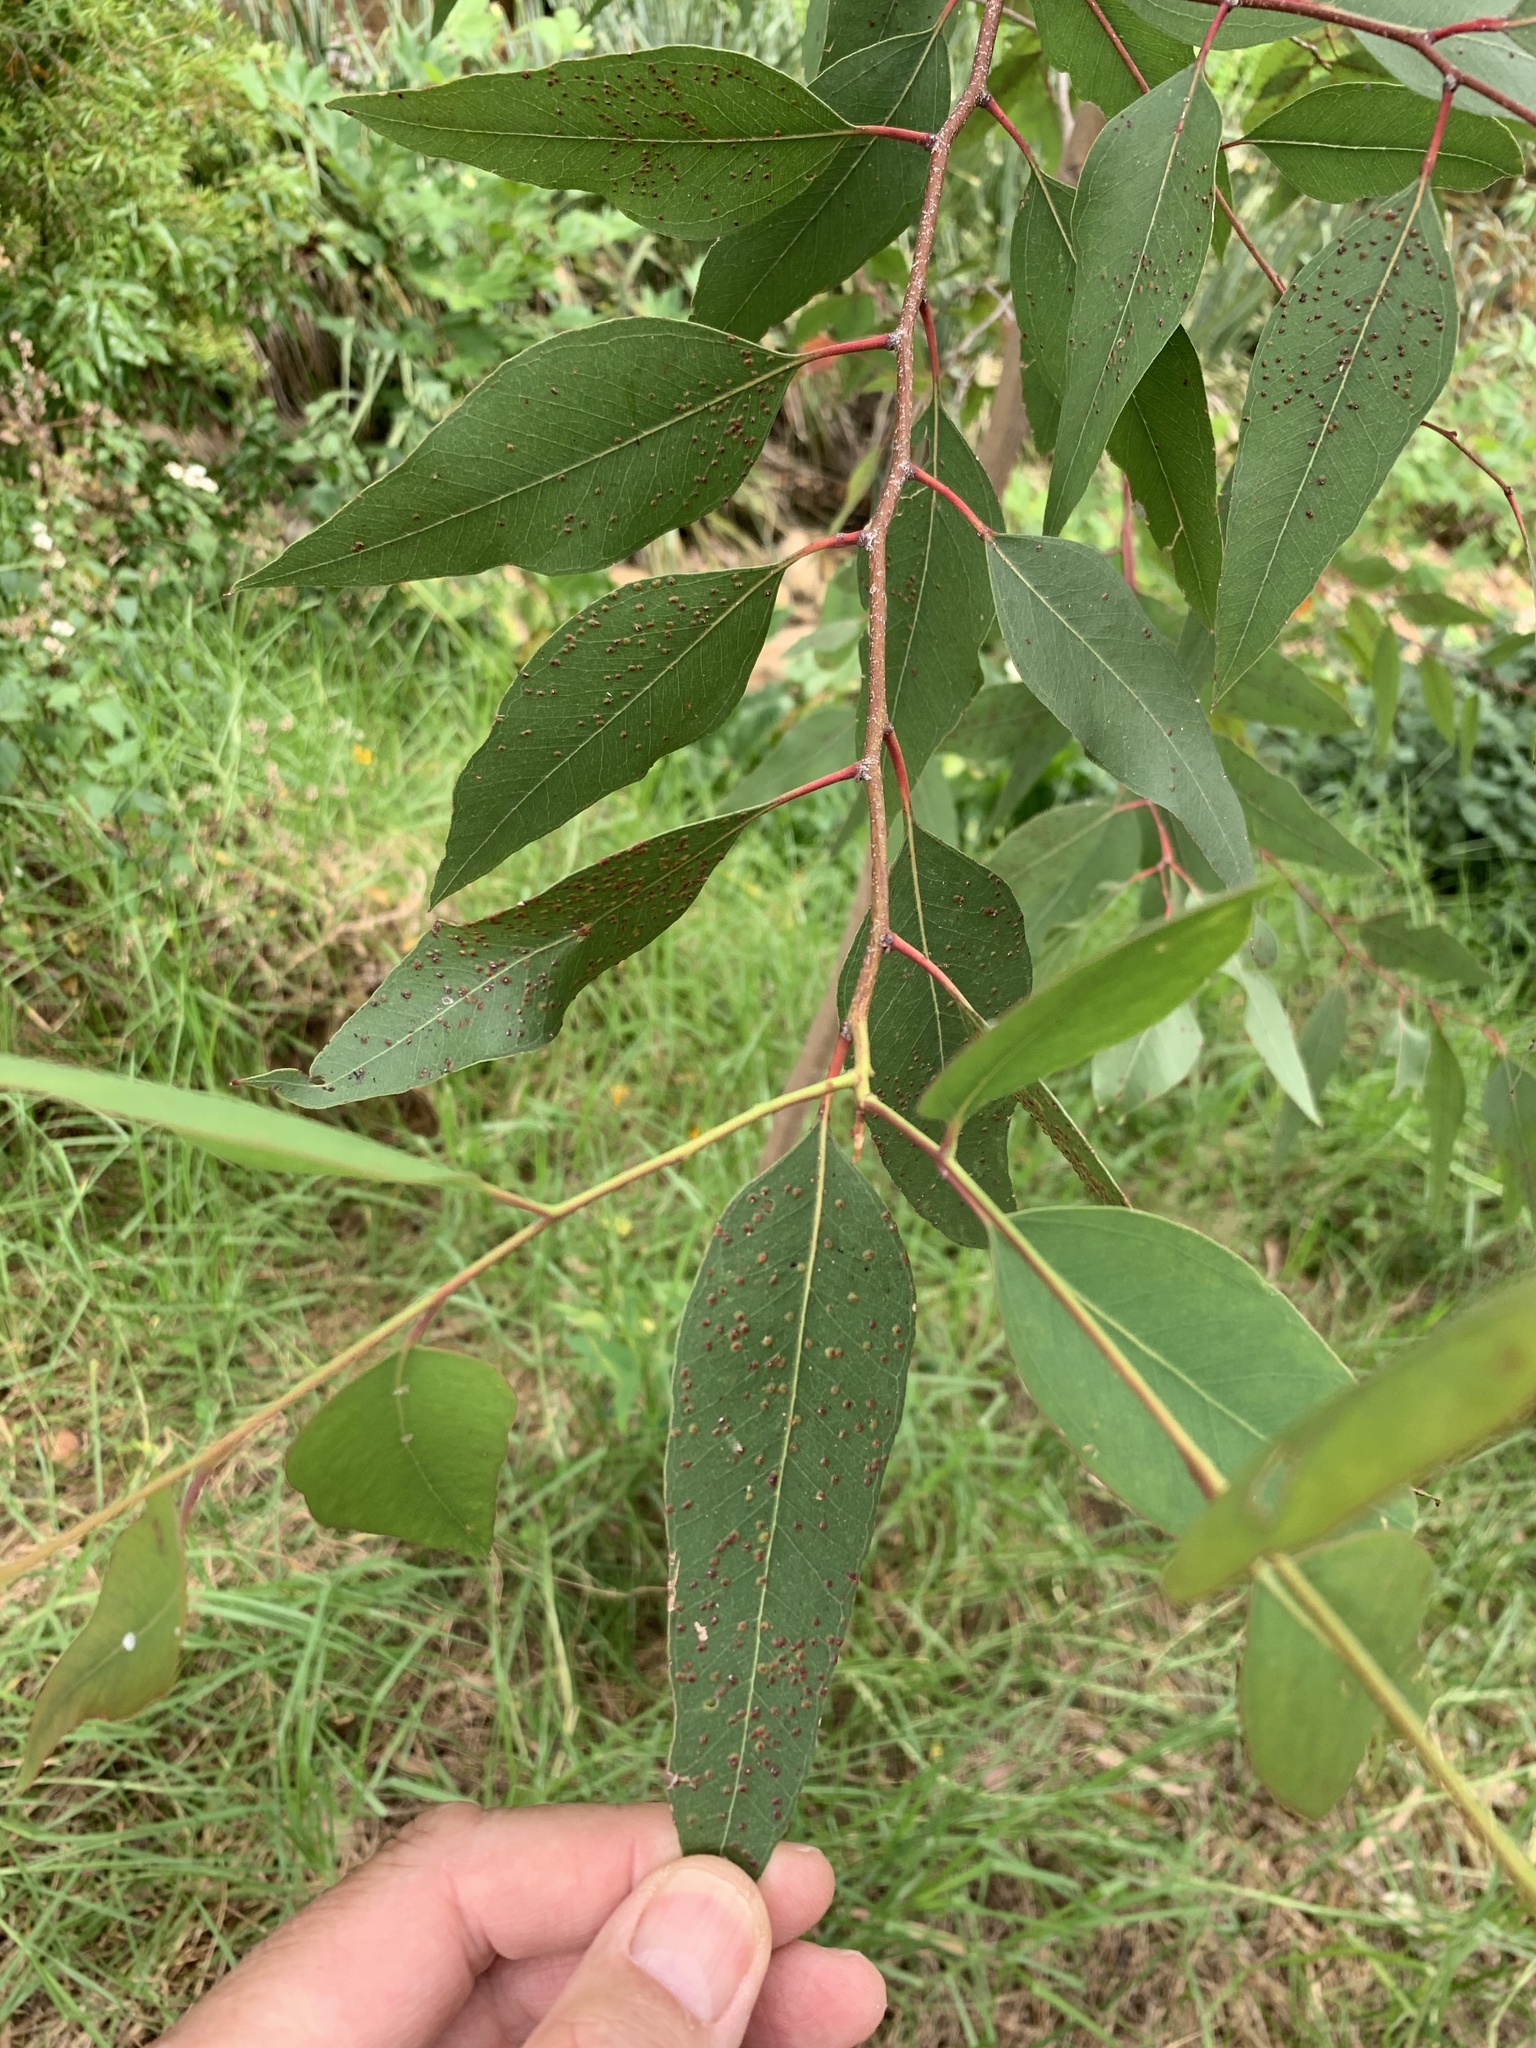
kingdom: Plantae
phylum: Tracheophyta
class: Magnoliopsida
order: Myrtales
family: Myrtaceae
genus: Eucalyptus
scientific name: Eucalyptus camaldulensis
